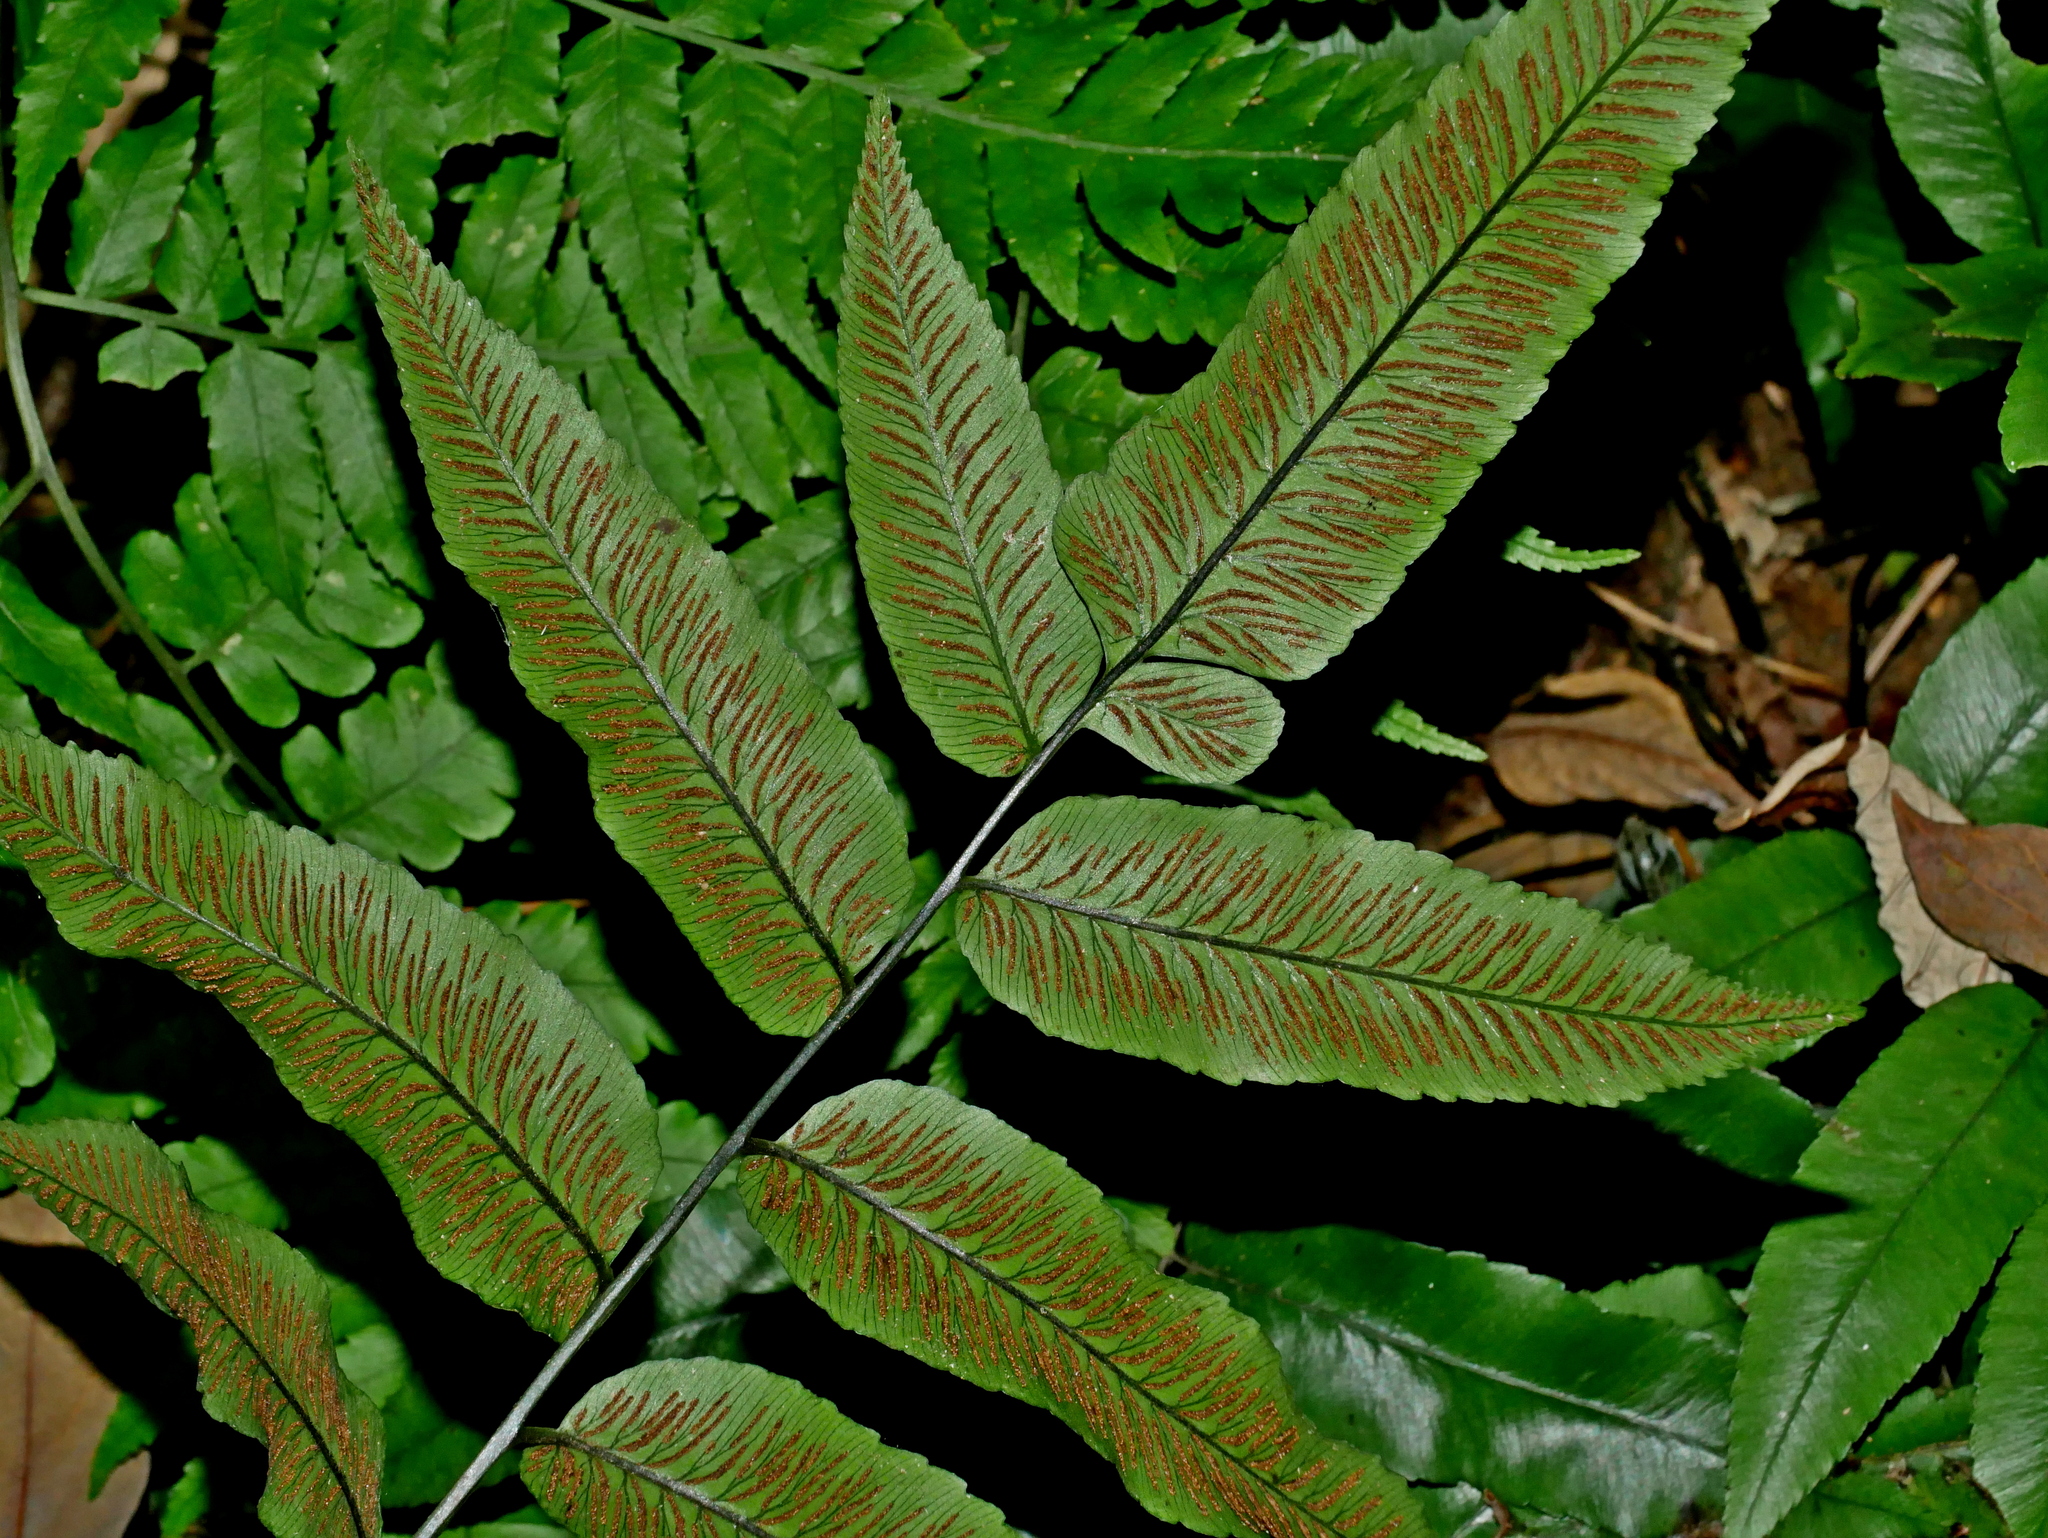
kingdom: Plantae
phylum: Tracheophyta
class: Polypodiopsida
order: Polypodiales
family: Athyriaceae
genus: Diplazium
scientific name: Diplazium maonense
